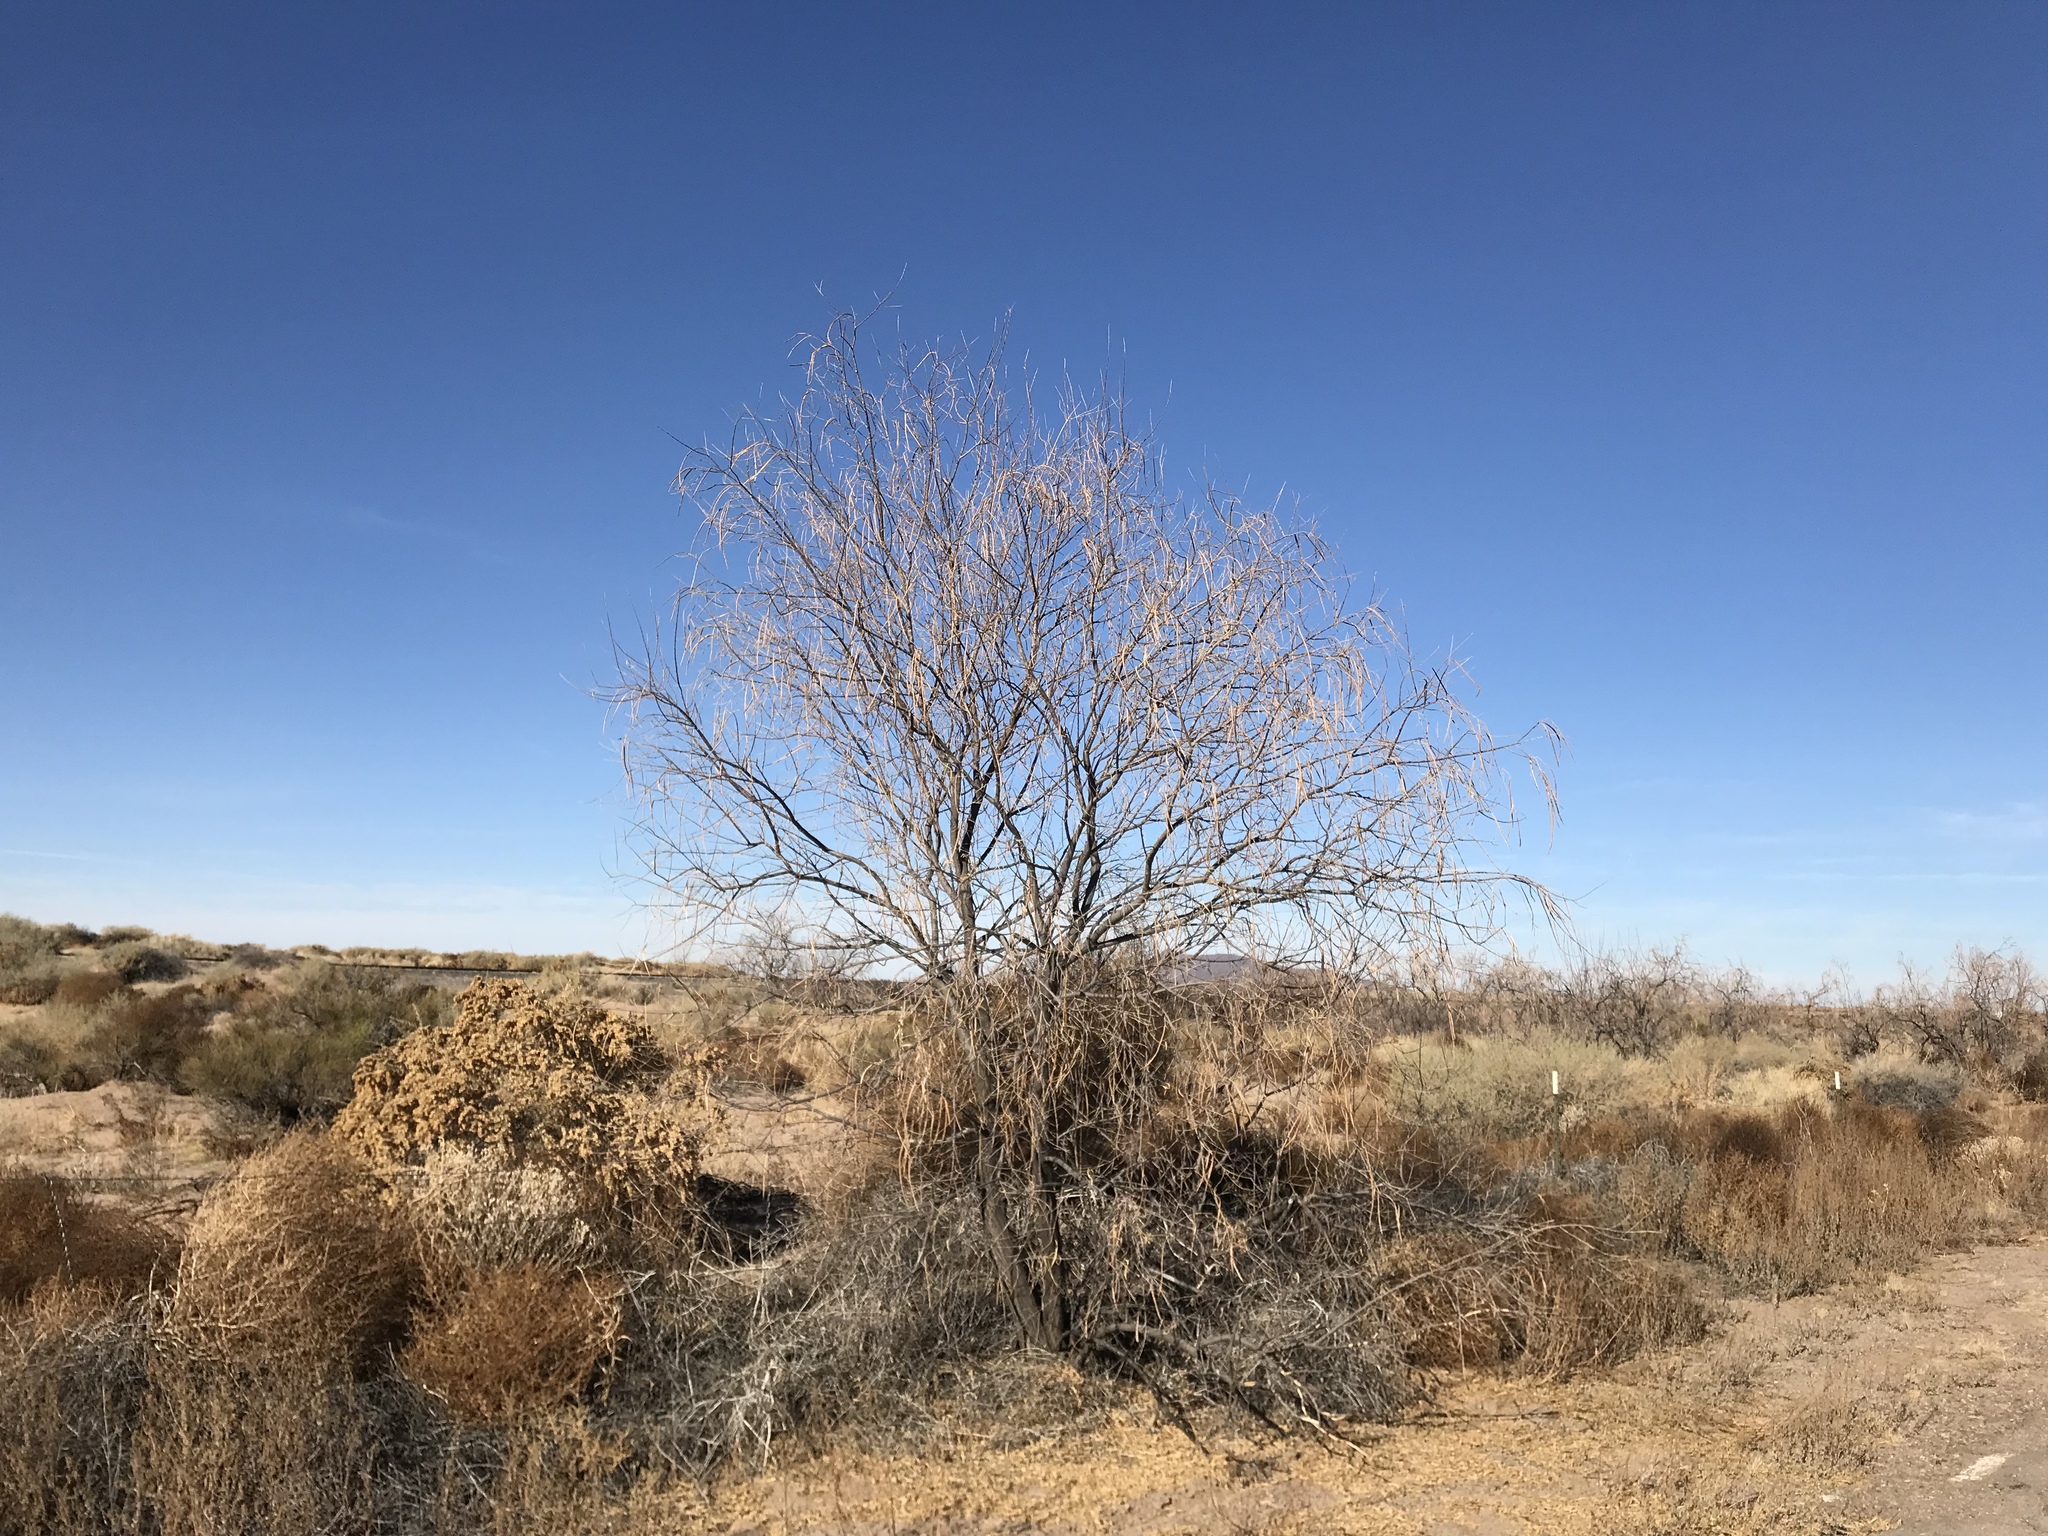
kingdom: Plantae
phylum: Tracheophyta
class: Magnoliopsida
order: Lamiales
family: Bignoniaceae
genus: Chilopsis
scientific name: Chilopsis linearis
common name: Desert-willow
